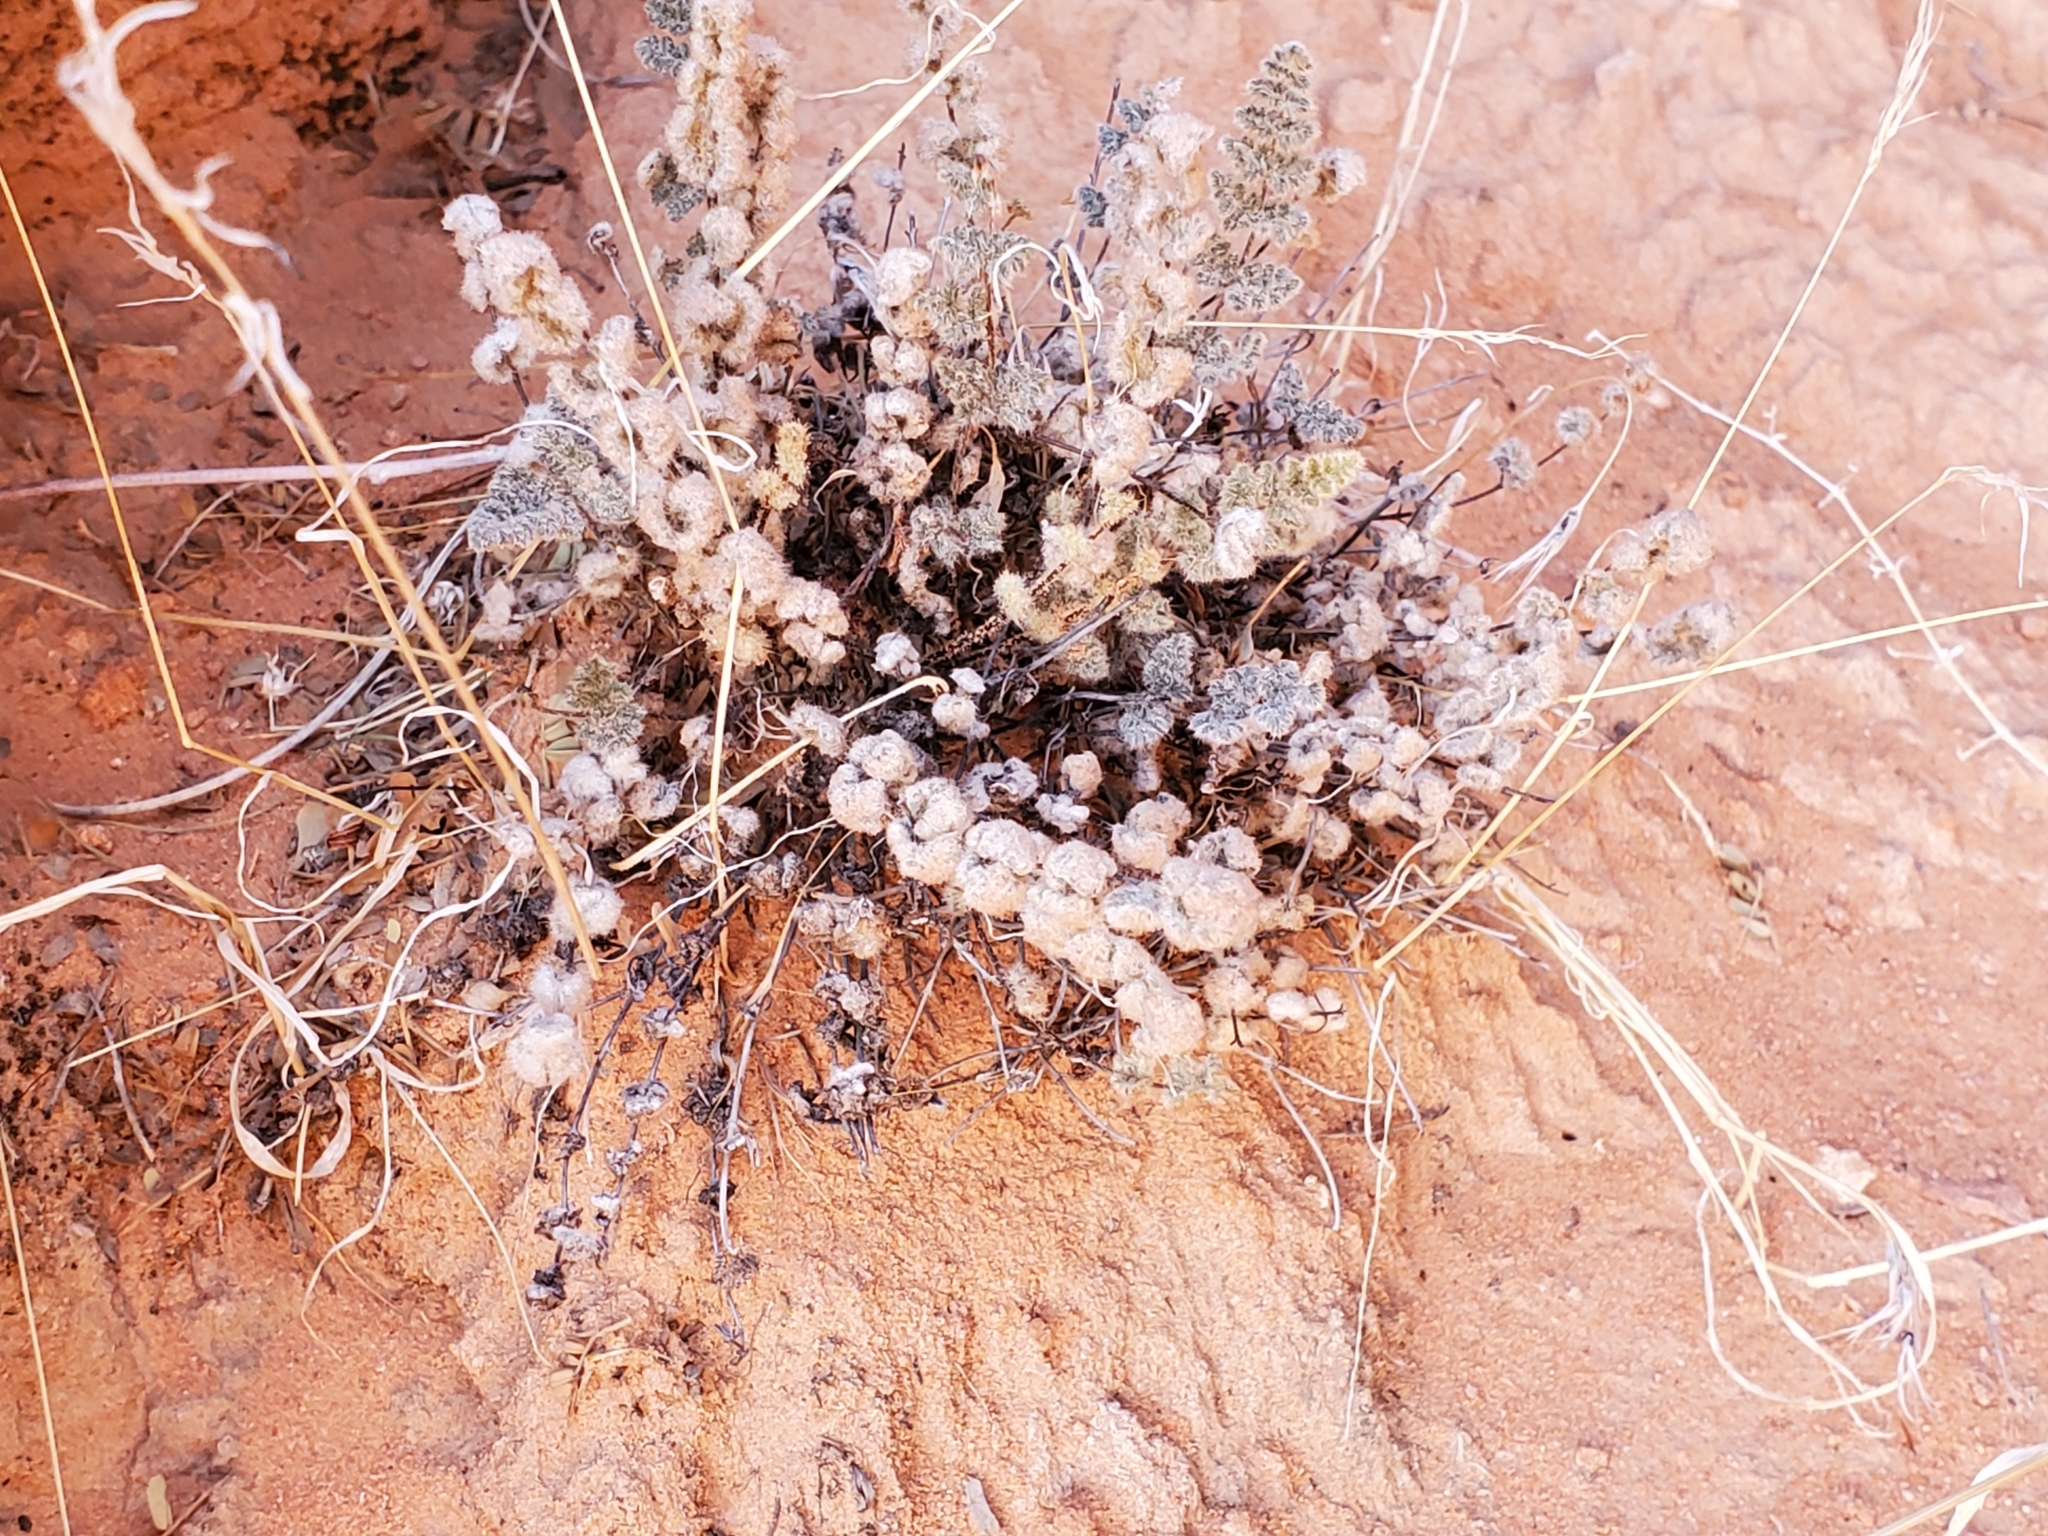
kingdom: Plantae
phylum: Tracheophyta
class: Polypodiopsida
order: Polypodiales
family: Pteridaceae
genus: Myriopteris
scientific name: Myriopteris parryi
